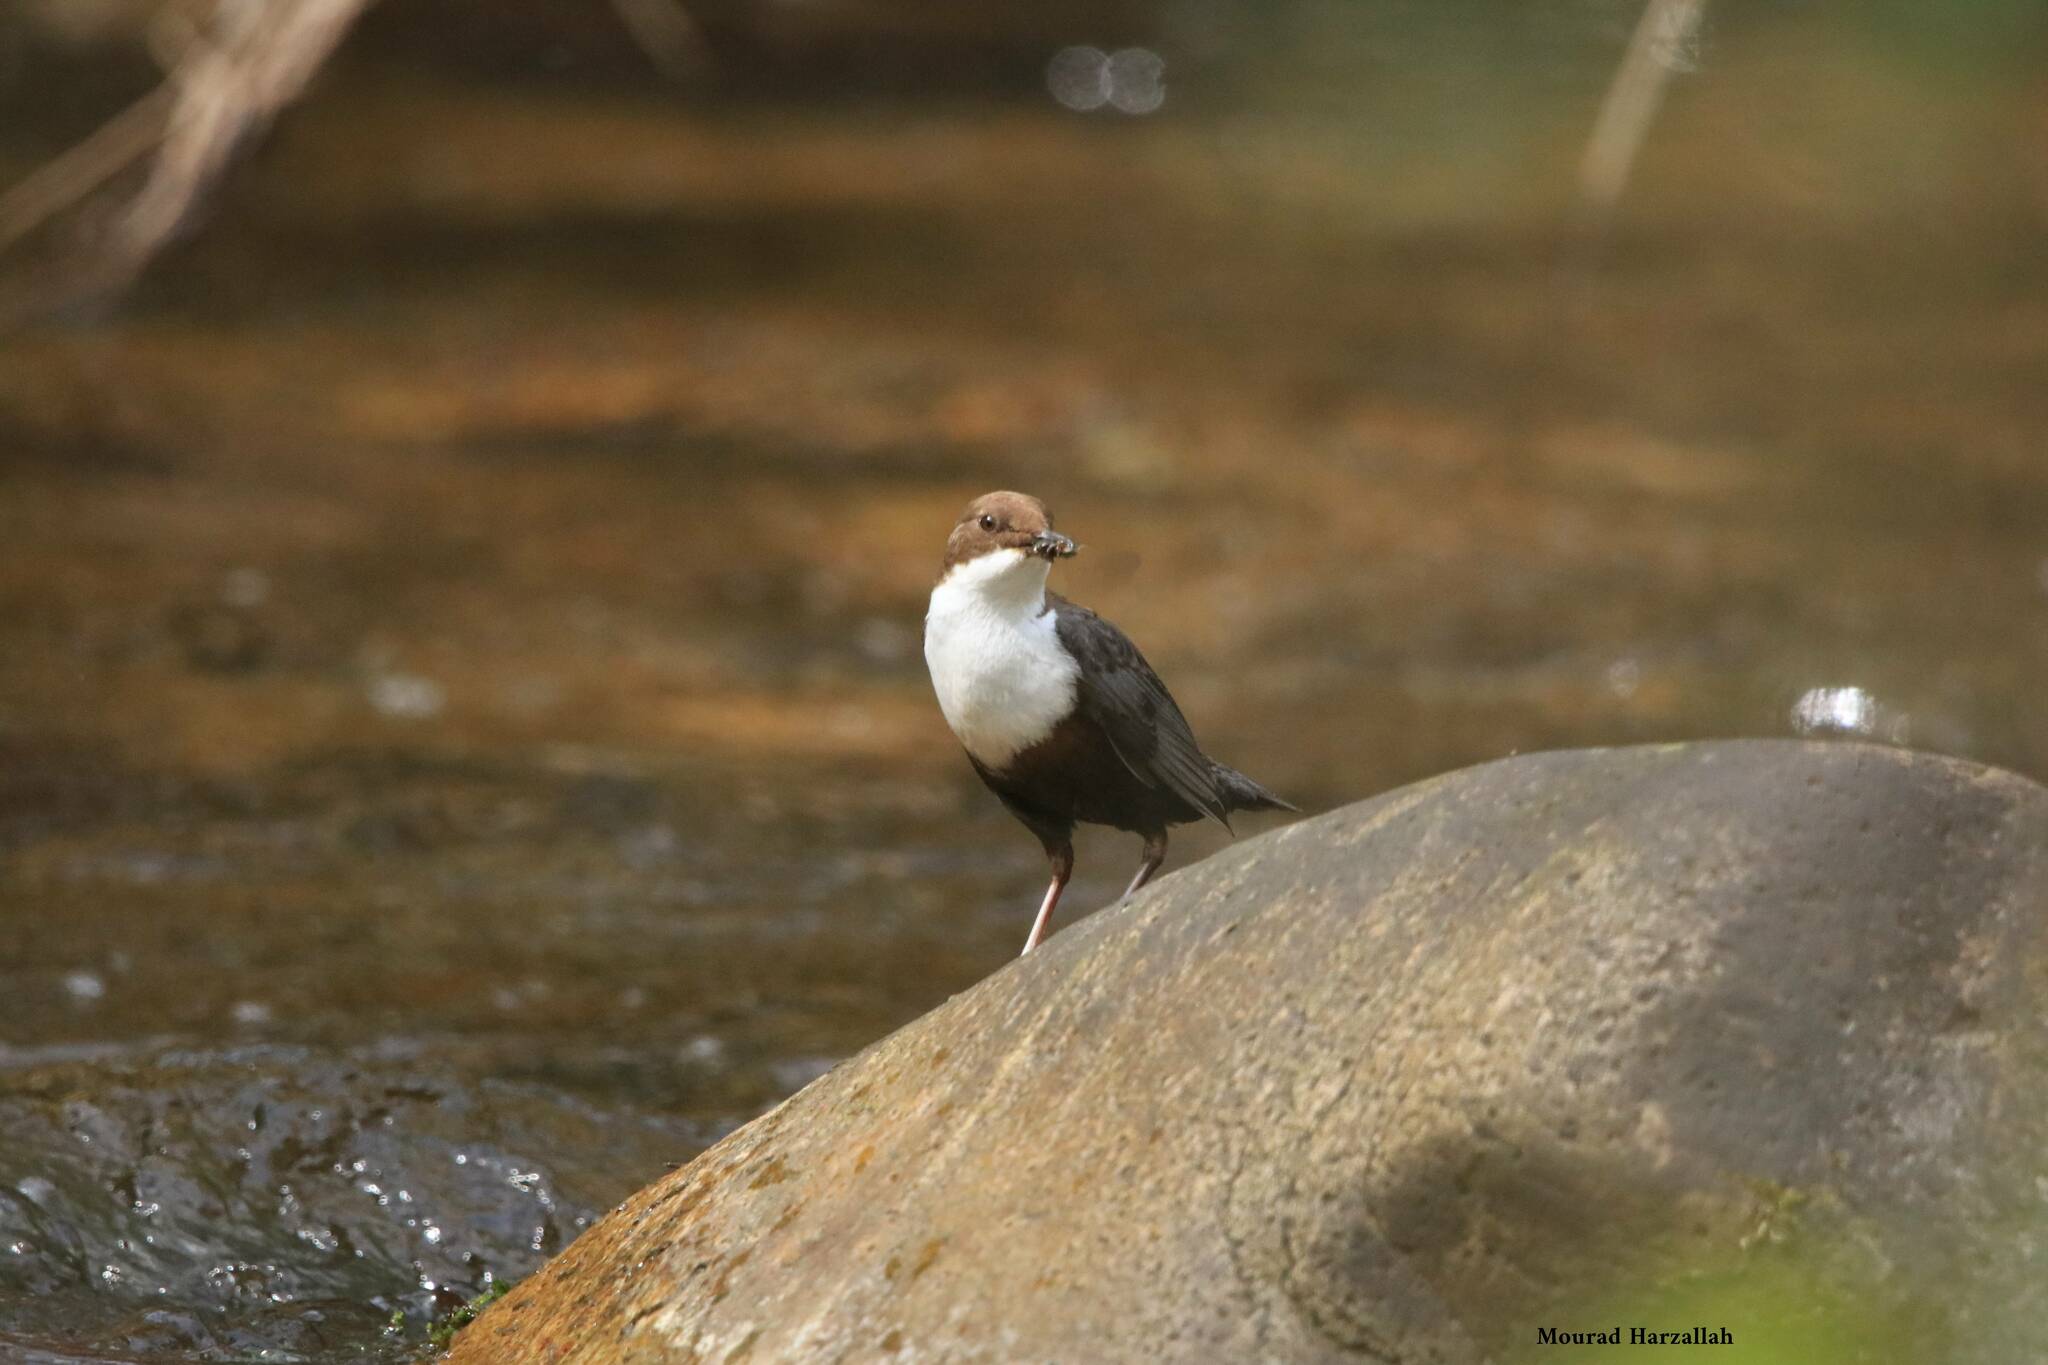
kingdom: Animalia
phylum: Chordata
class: Aves
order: Passeriformes
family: Cinclidae
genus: Cinclus
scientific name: Cinclus cinclus
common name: White-throated dipper
